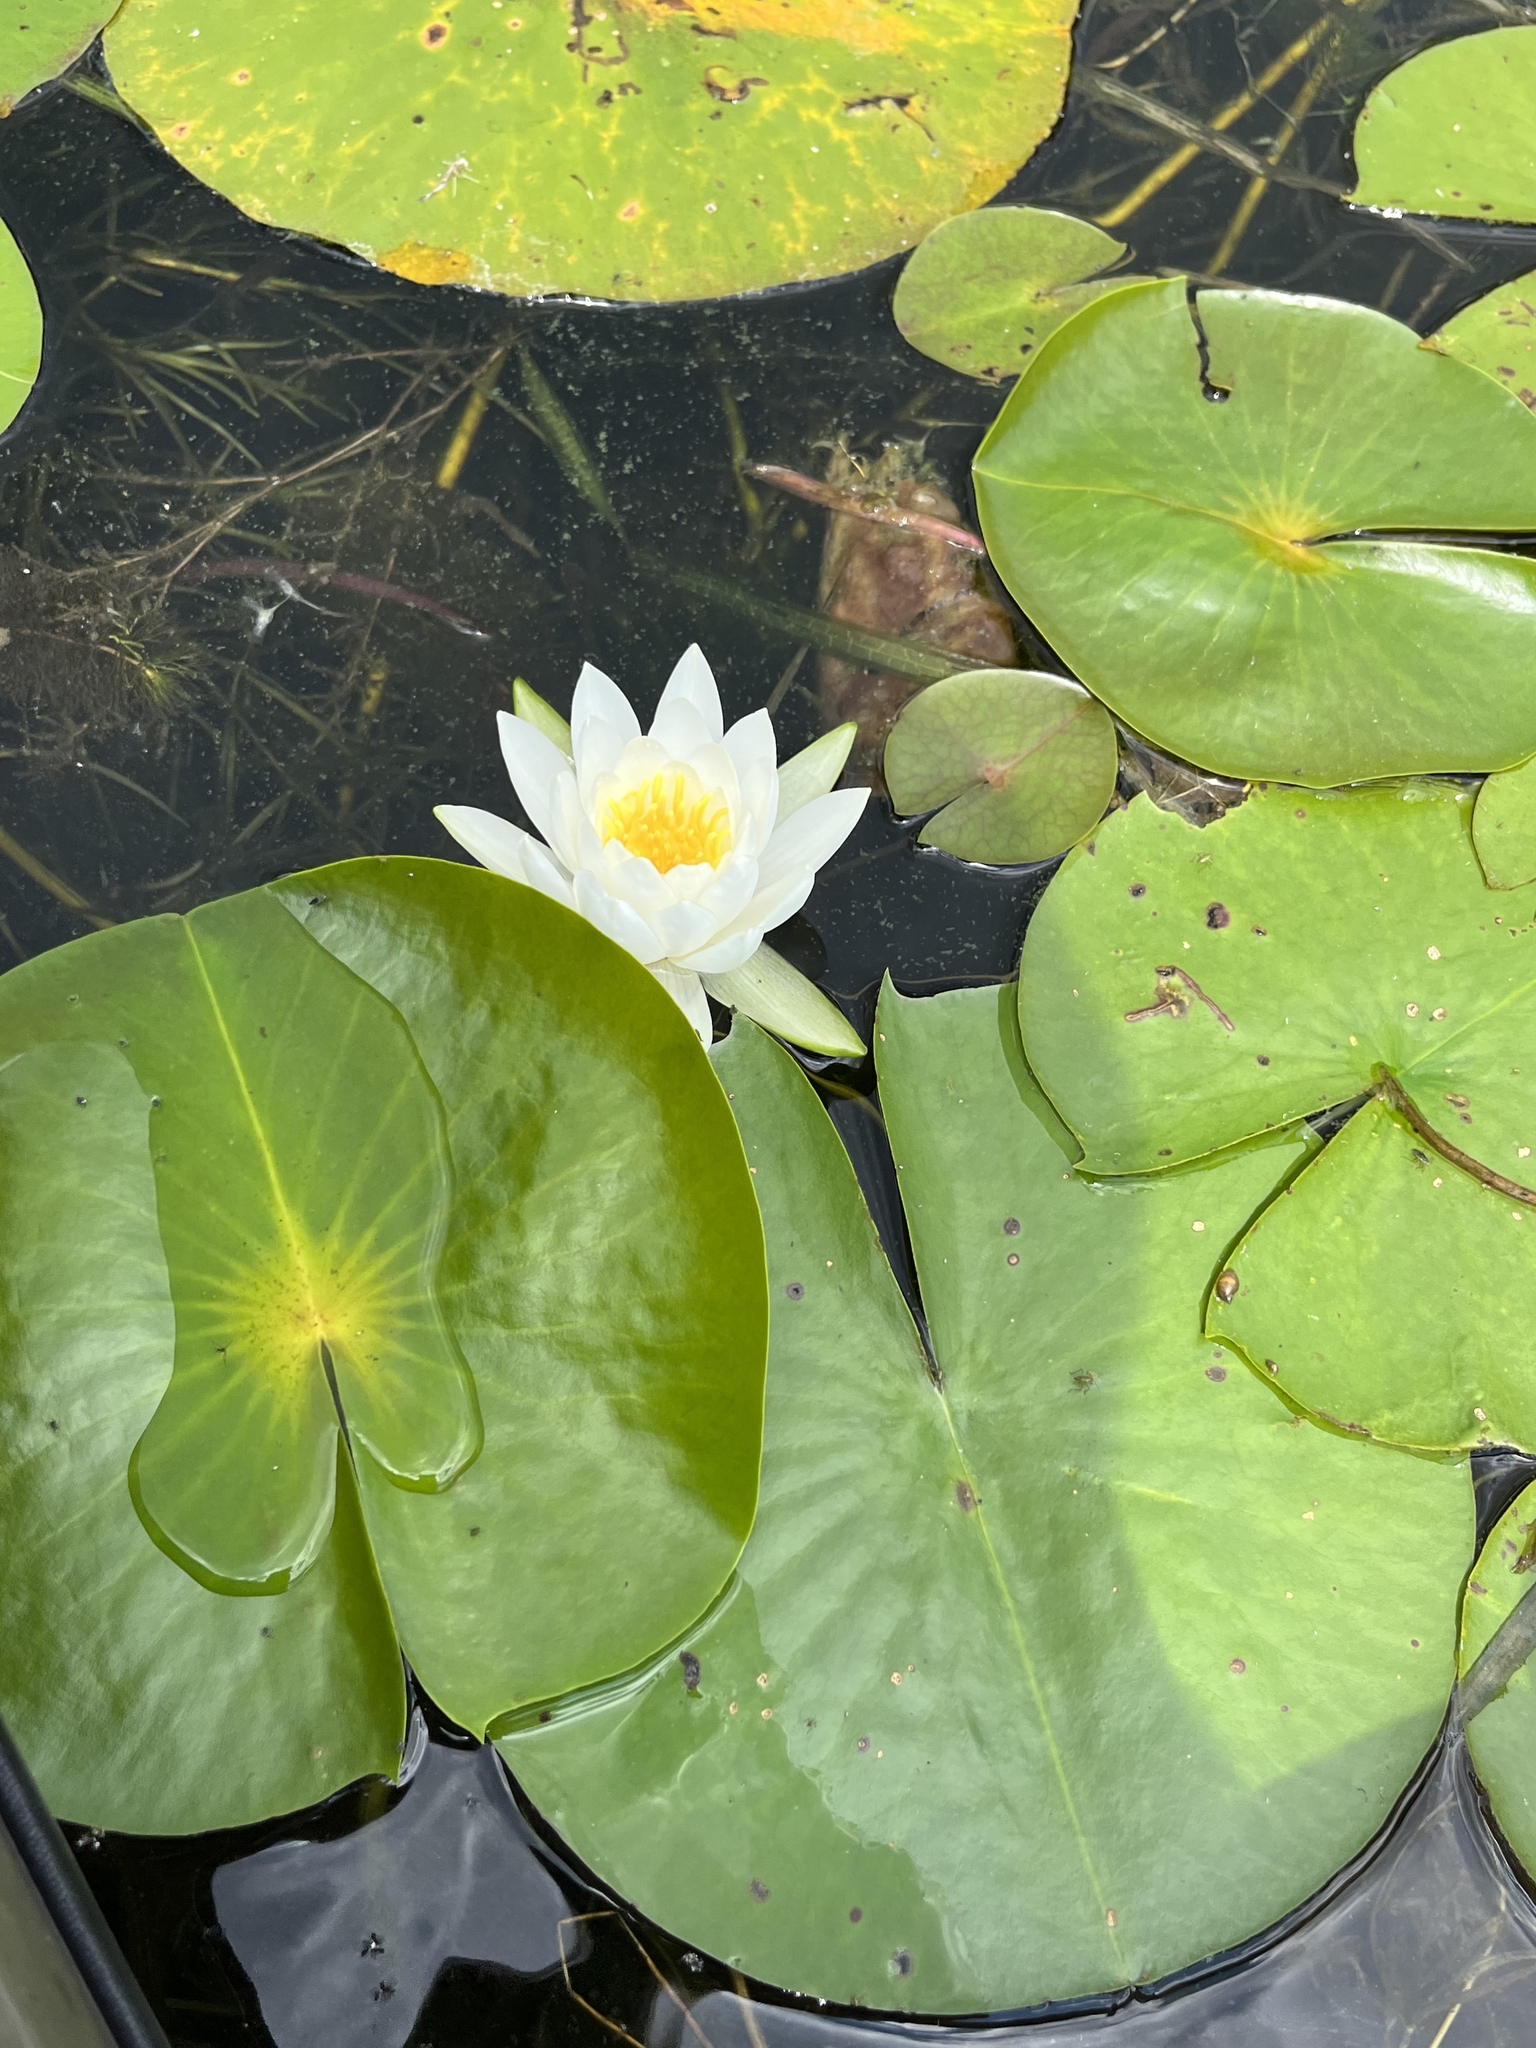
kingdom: Plantae
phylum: Tracheophyta
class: Magnoliopsida
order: Nymphaeales
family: Nymphaeaceae
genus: Nymphaea
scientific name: Nymphaea odorata
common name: Fragrant water-lily
